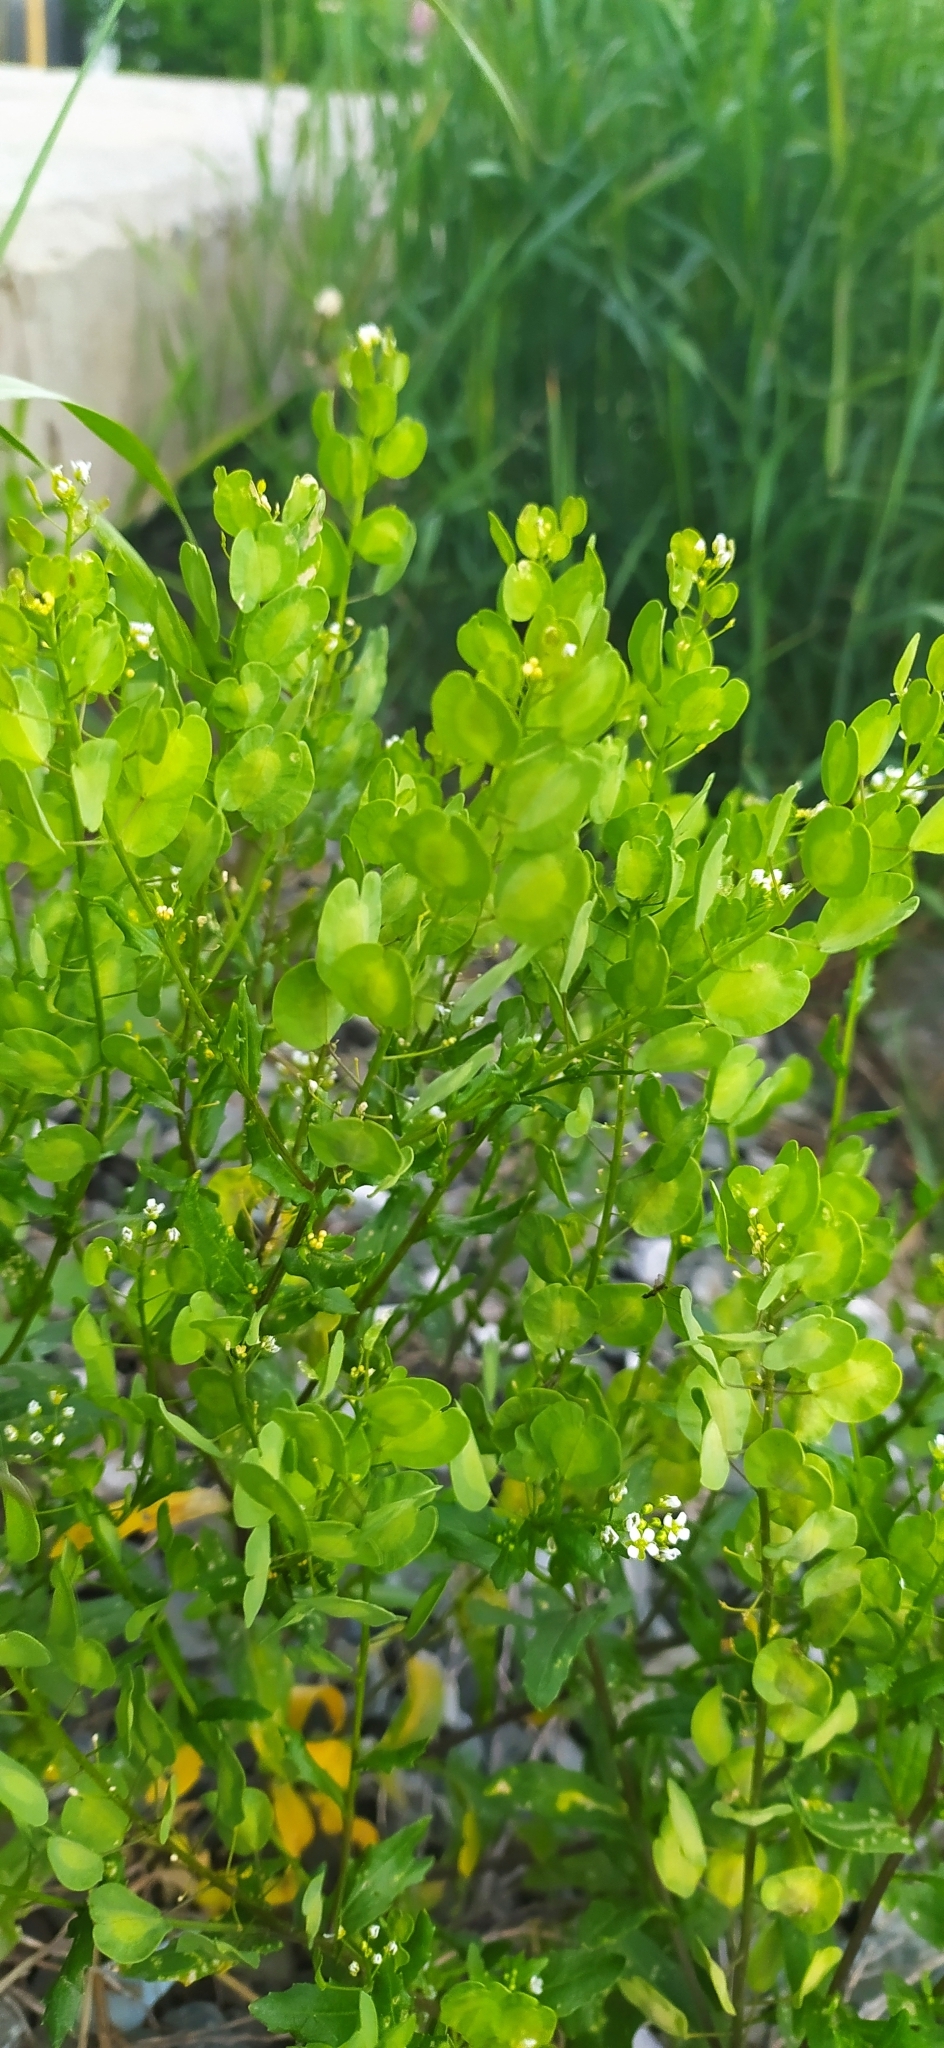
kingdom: Plantae
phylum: Tracheophyta
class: Magnoliopsida
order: Brassicales
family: Brassicaceae
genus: Thlaspi
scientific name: Thlaspi arvense
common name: Field pennycress
